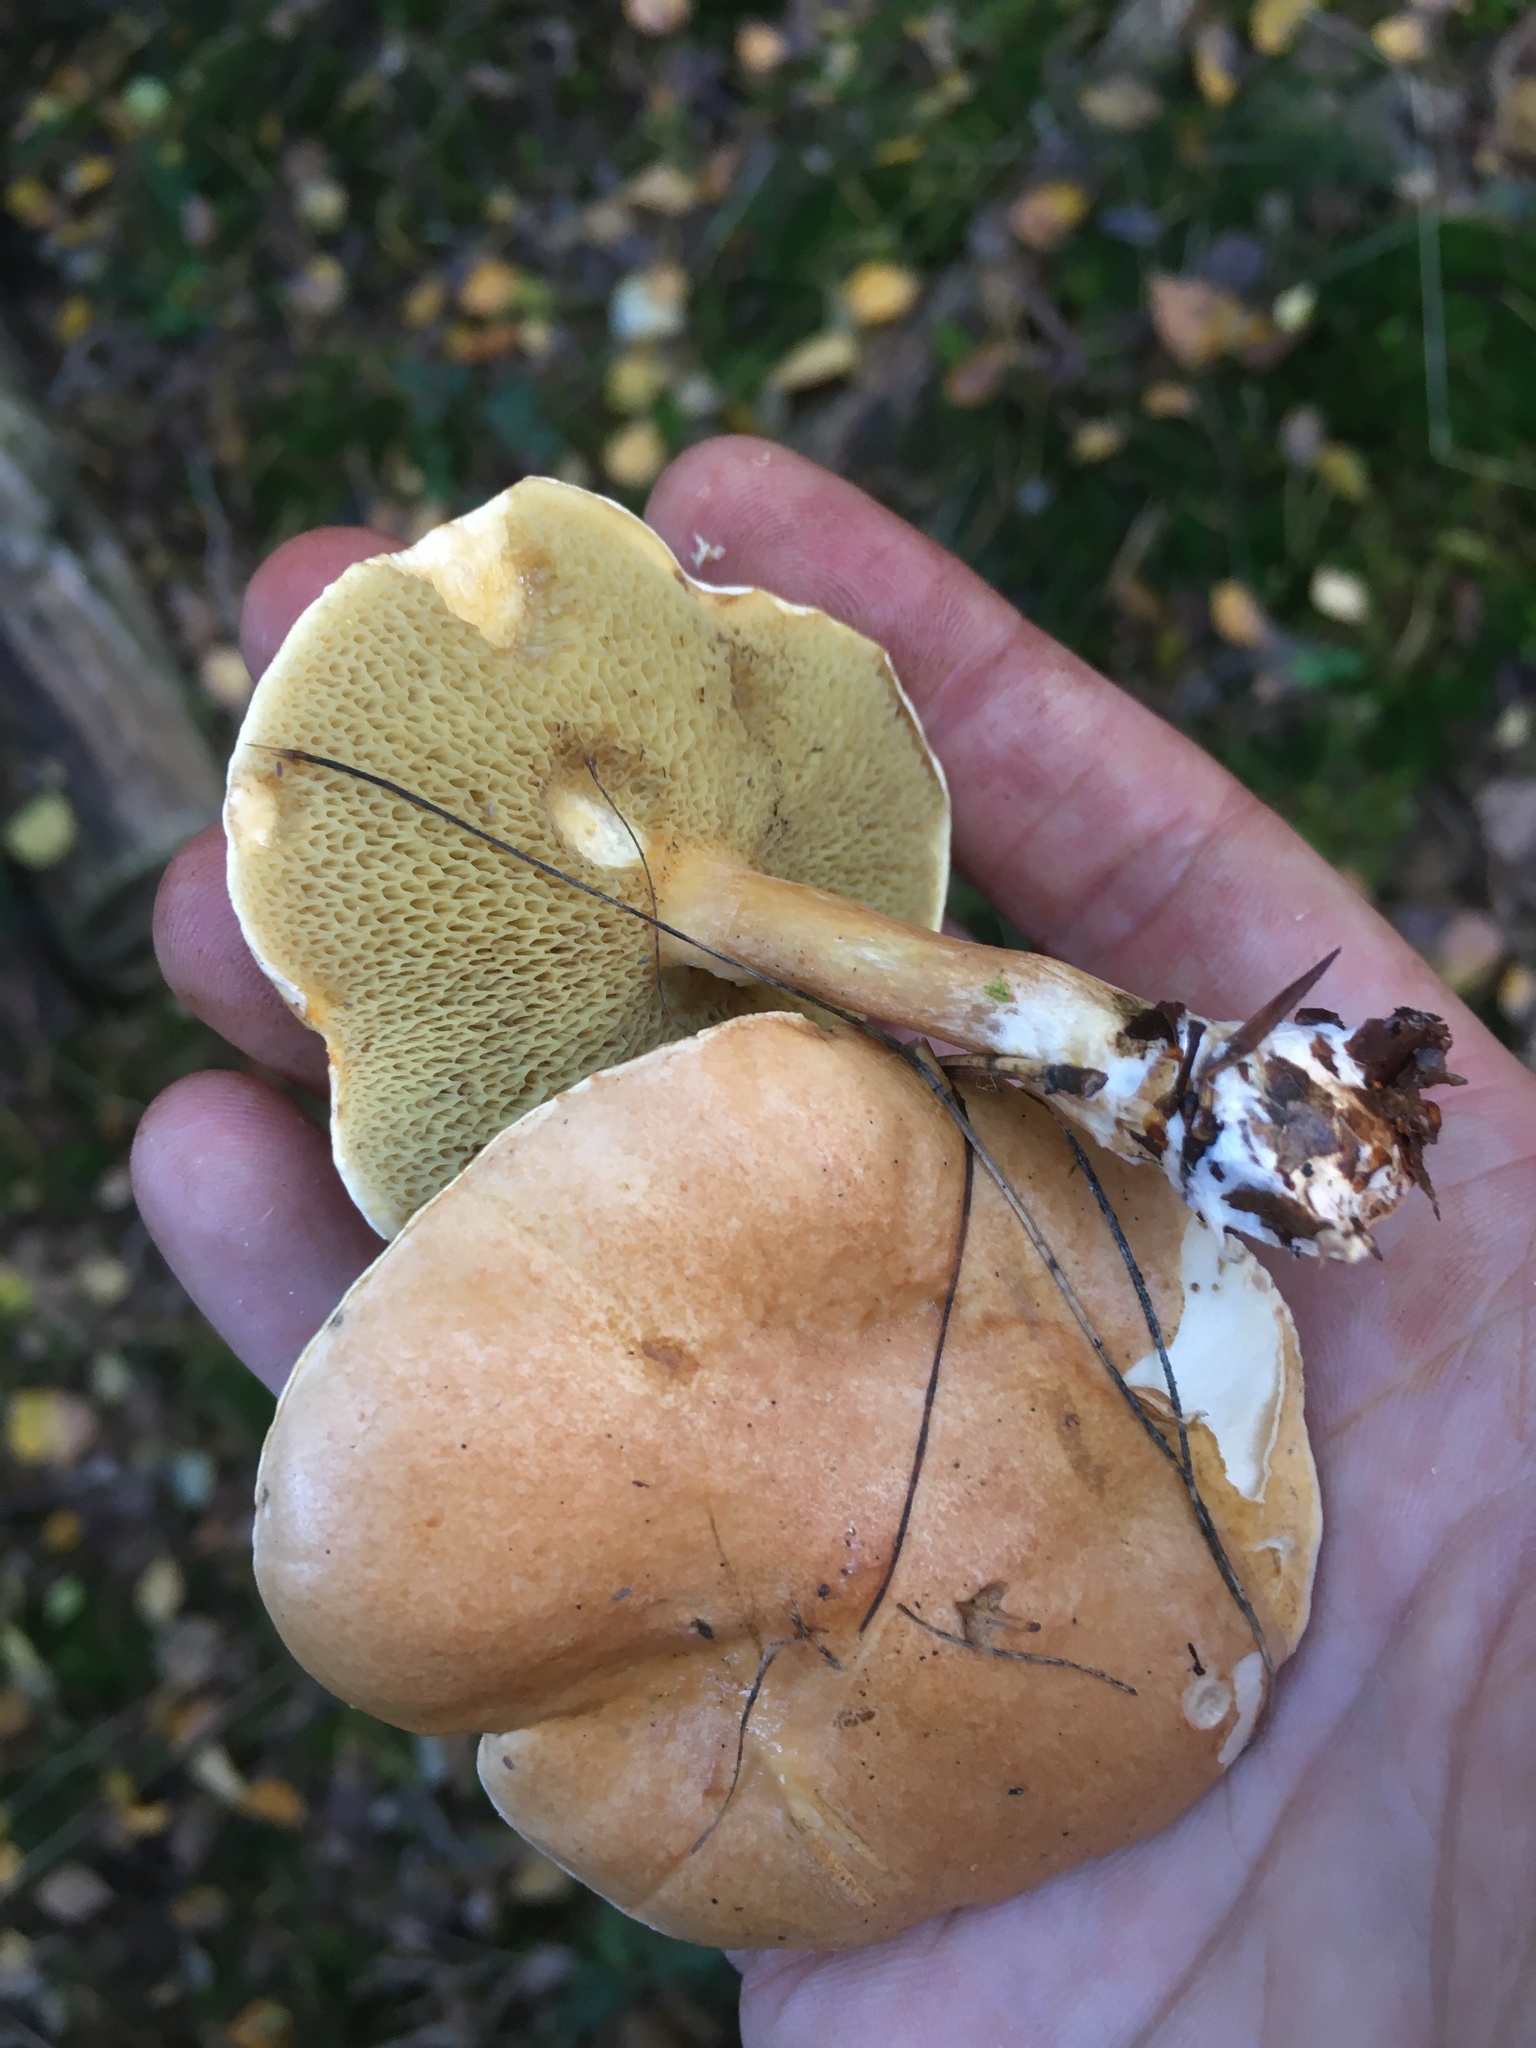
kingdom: Fungi
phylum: Basidiomycota
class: Agaricomycetes
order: Boletales
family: Suillaceae
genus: Suillus
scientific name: Suillus bovinus
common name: Bovine bolete
